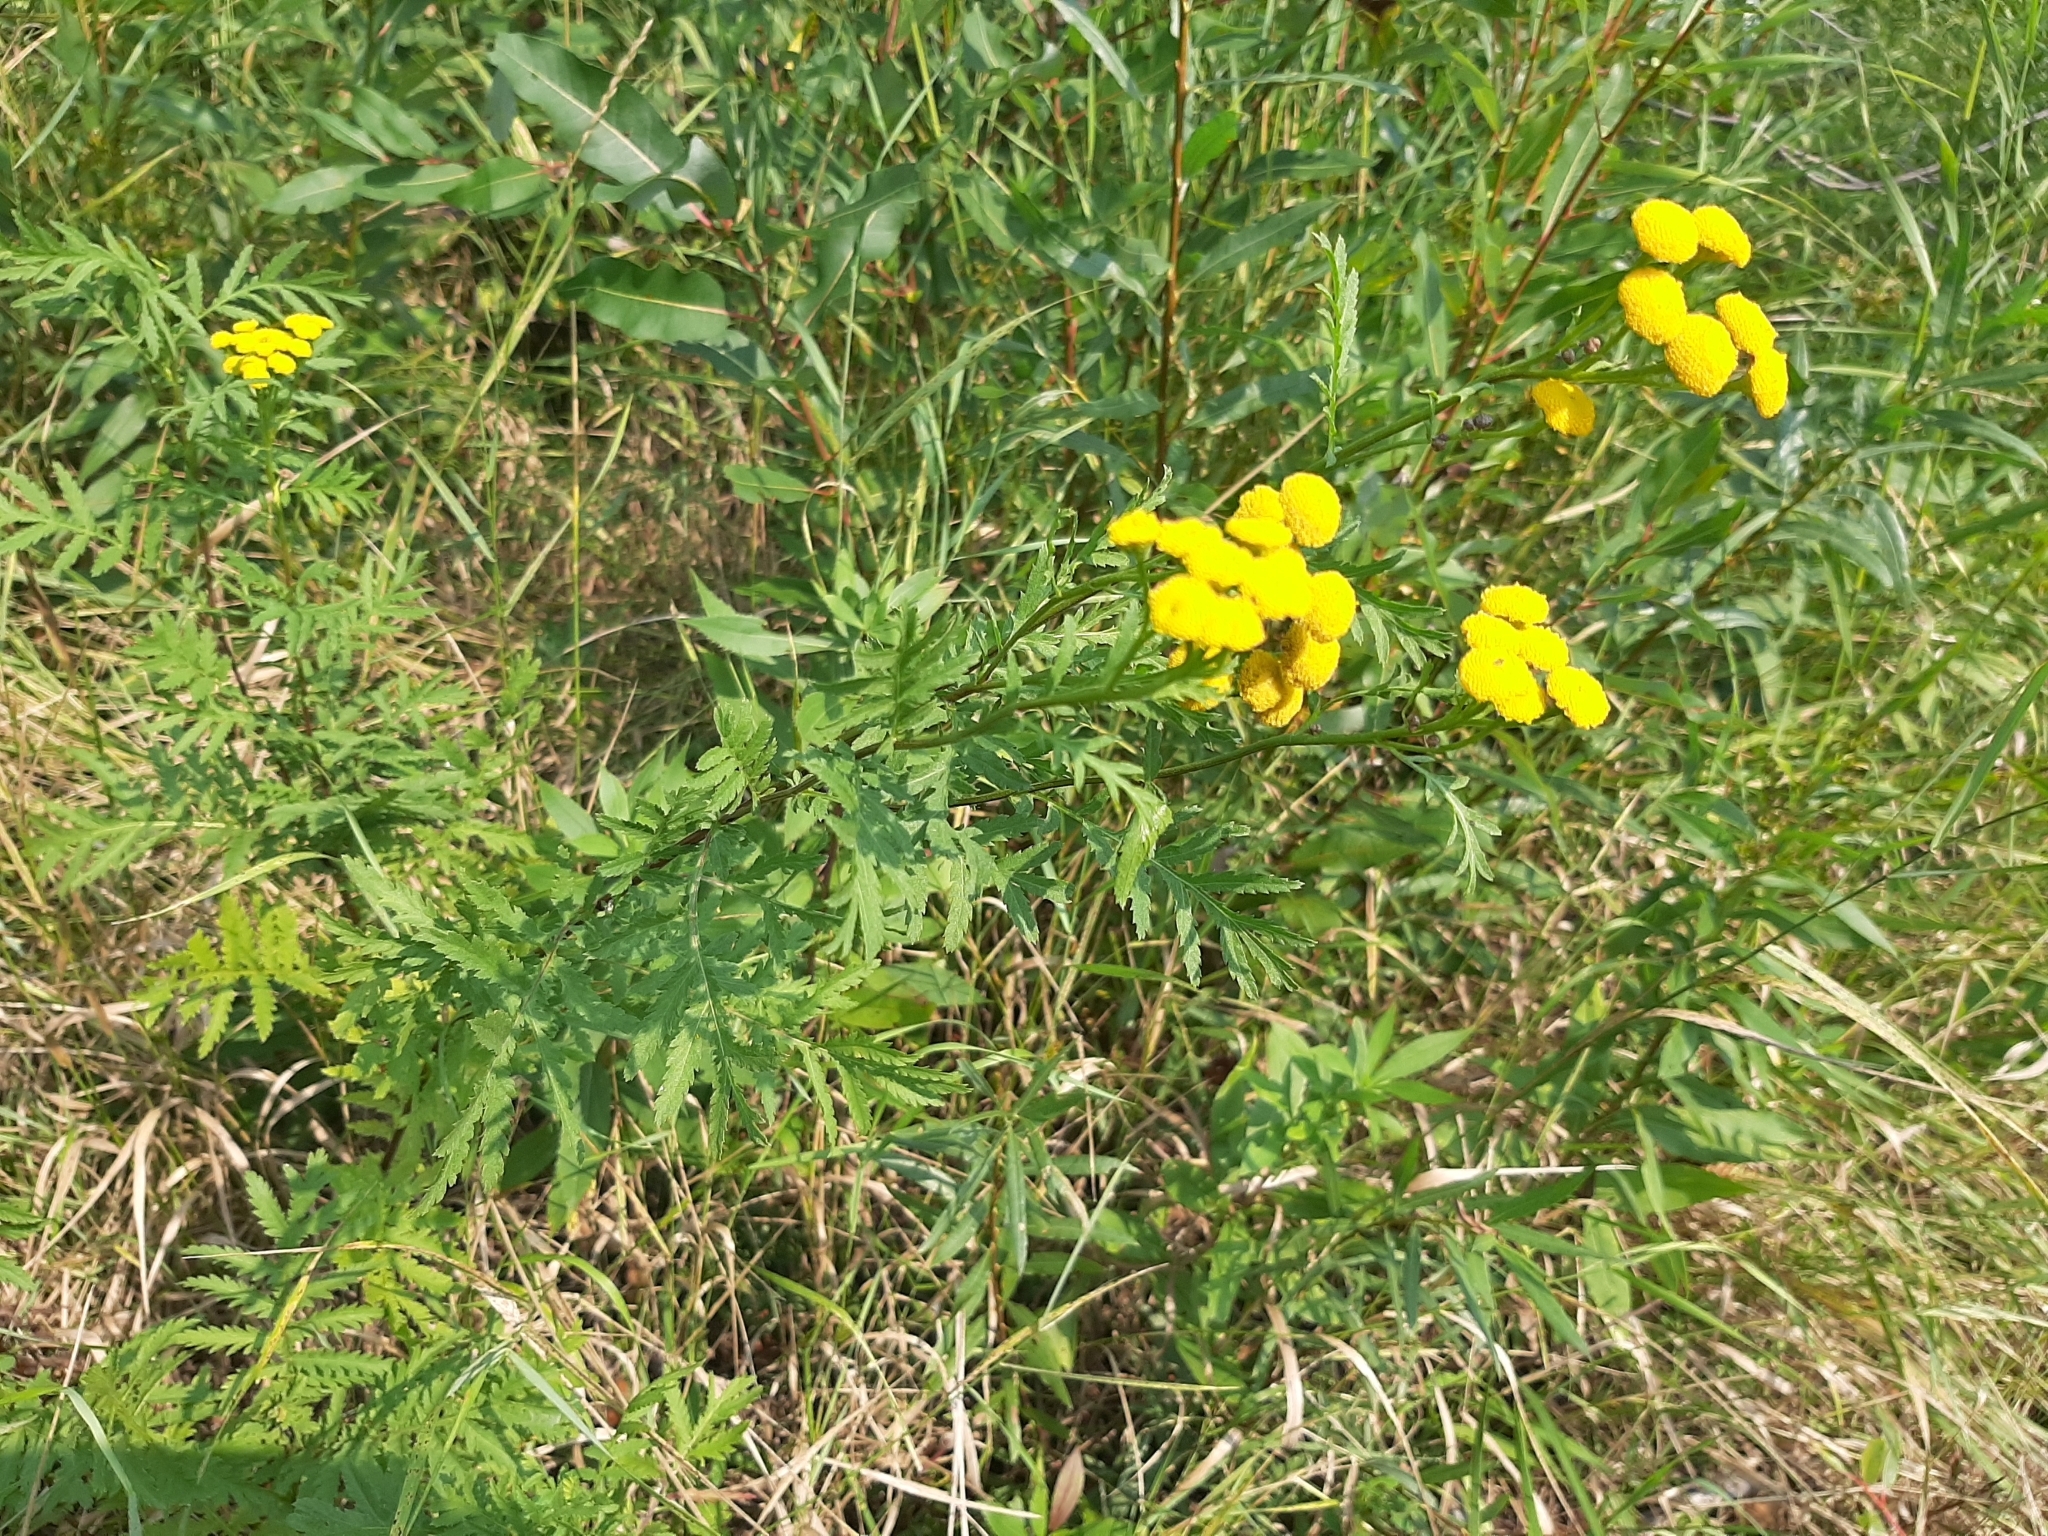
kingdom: Plantae
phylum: Tracheophyta
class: Magnoliopsida
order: Asterales
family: Asteraceae
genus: Tanacetum
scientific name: Tanacetum vulgare
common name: Common tansy
